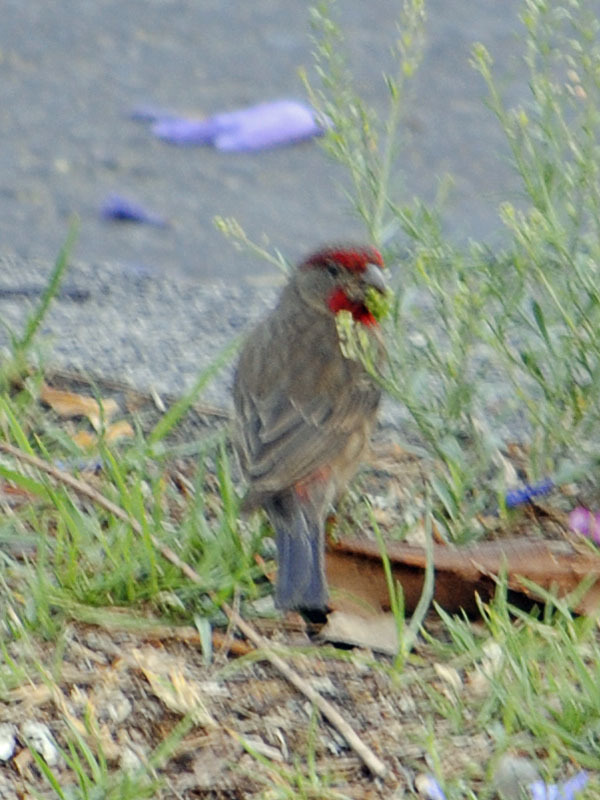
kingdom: Animalia
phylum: Chordata
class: Aves
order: Passeriformes
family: Fringillidae
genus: Haemorhous
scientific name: Haemorhous mexicanus
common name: House finch
